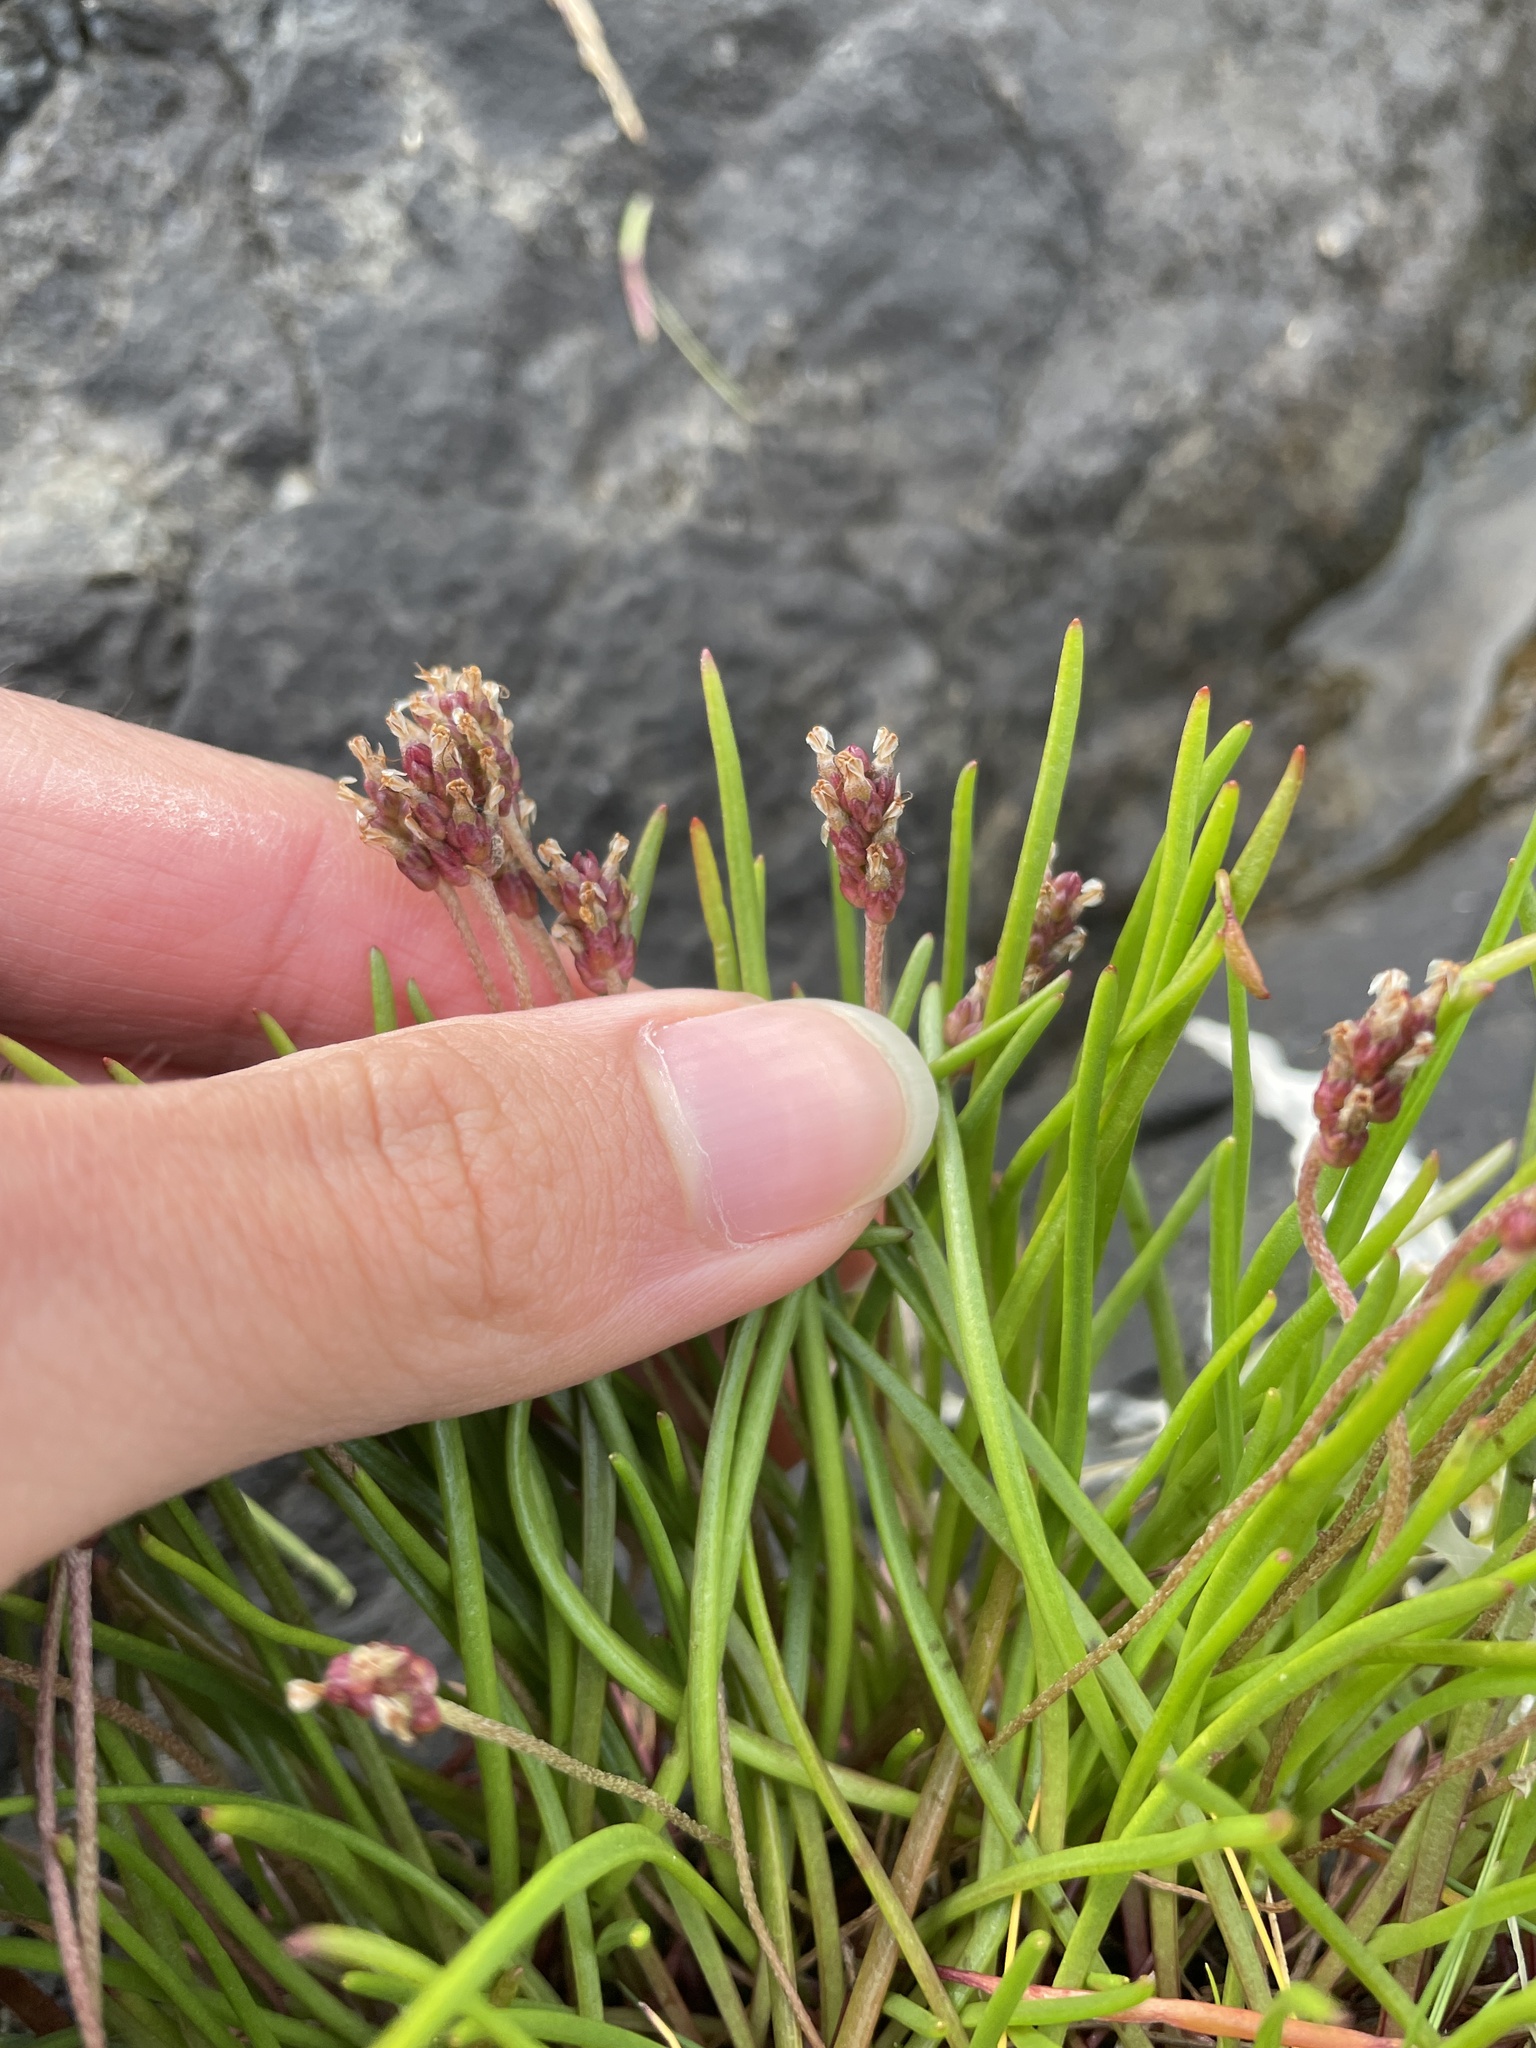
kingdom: Plantae
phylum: Tracheophyta
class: Magnoliopsida
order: Lamiales
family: Plantaginaceae
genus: Plantago
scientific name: Plantago maritima
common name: Sea plantain
